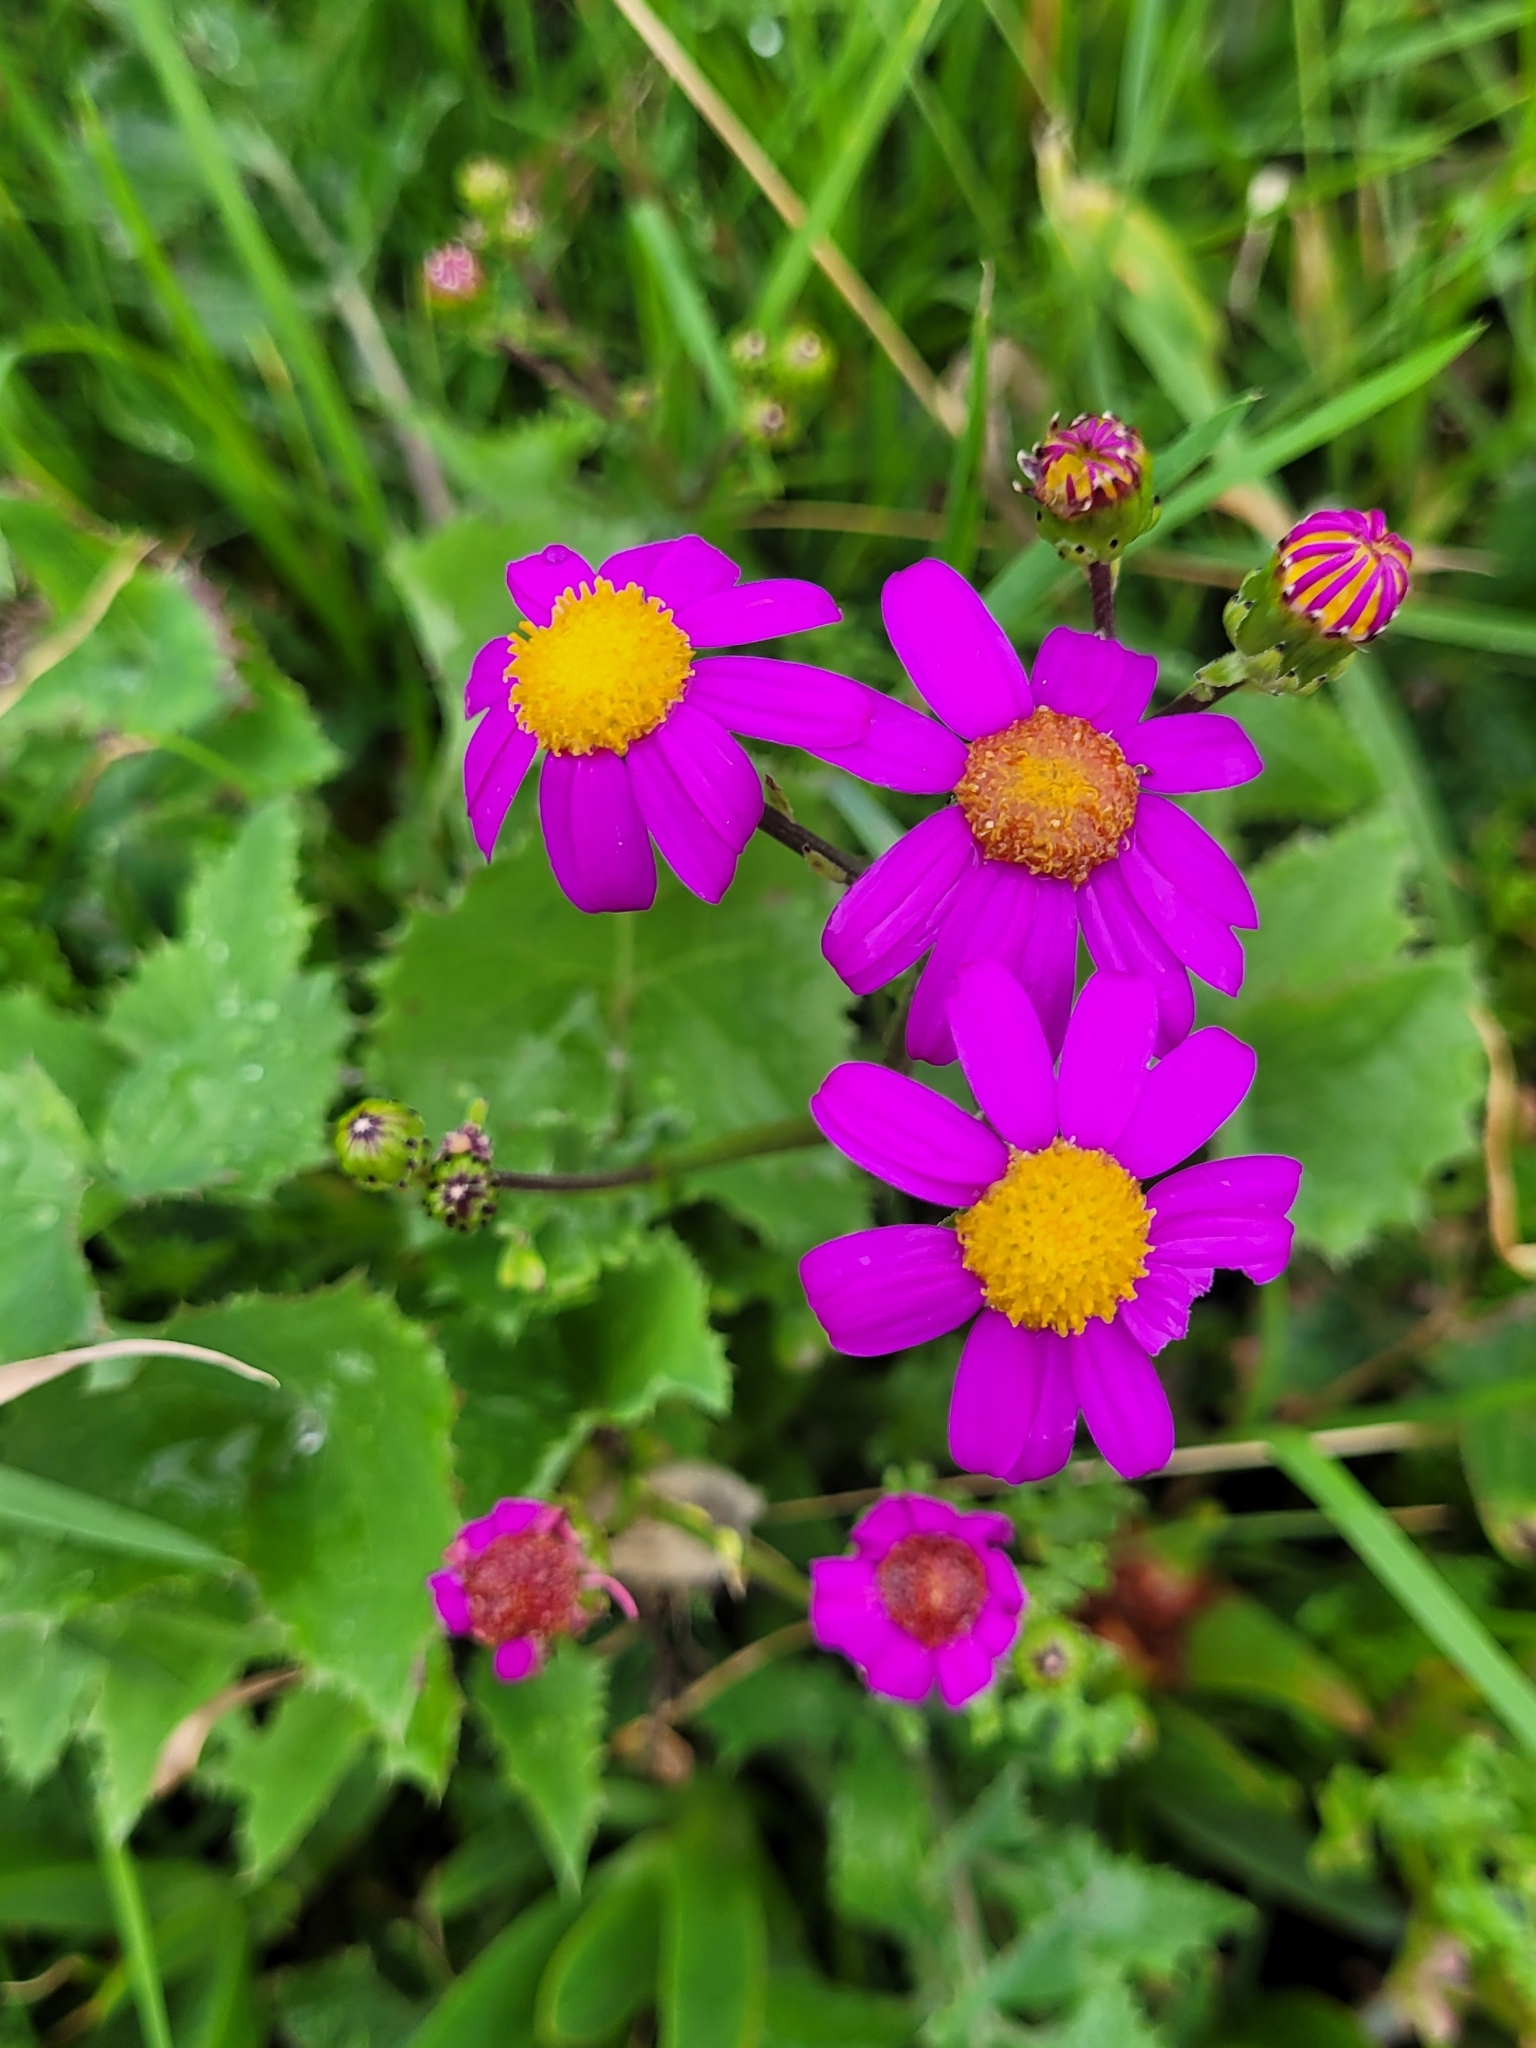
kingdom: Plantae
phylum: Tracheophyta
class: Magnoliopsida
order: Asterales
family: Asteraceae
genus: Senecio
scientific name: Senecio elegans
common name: Purple groundsel
